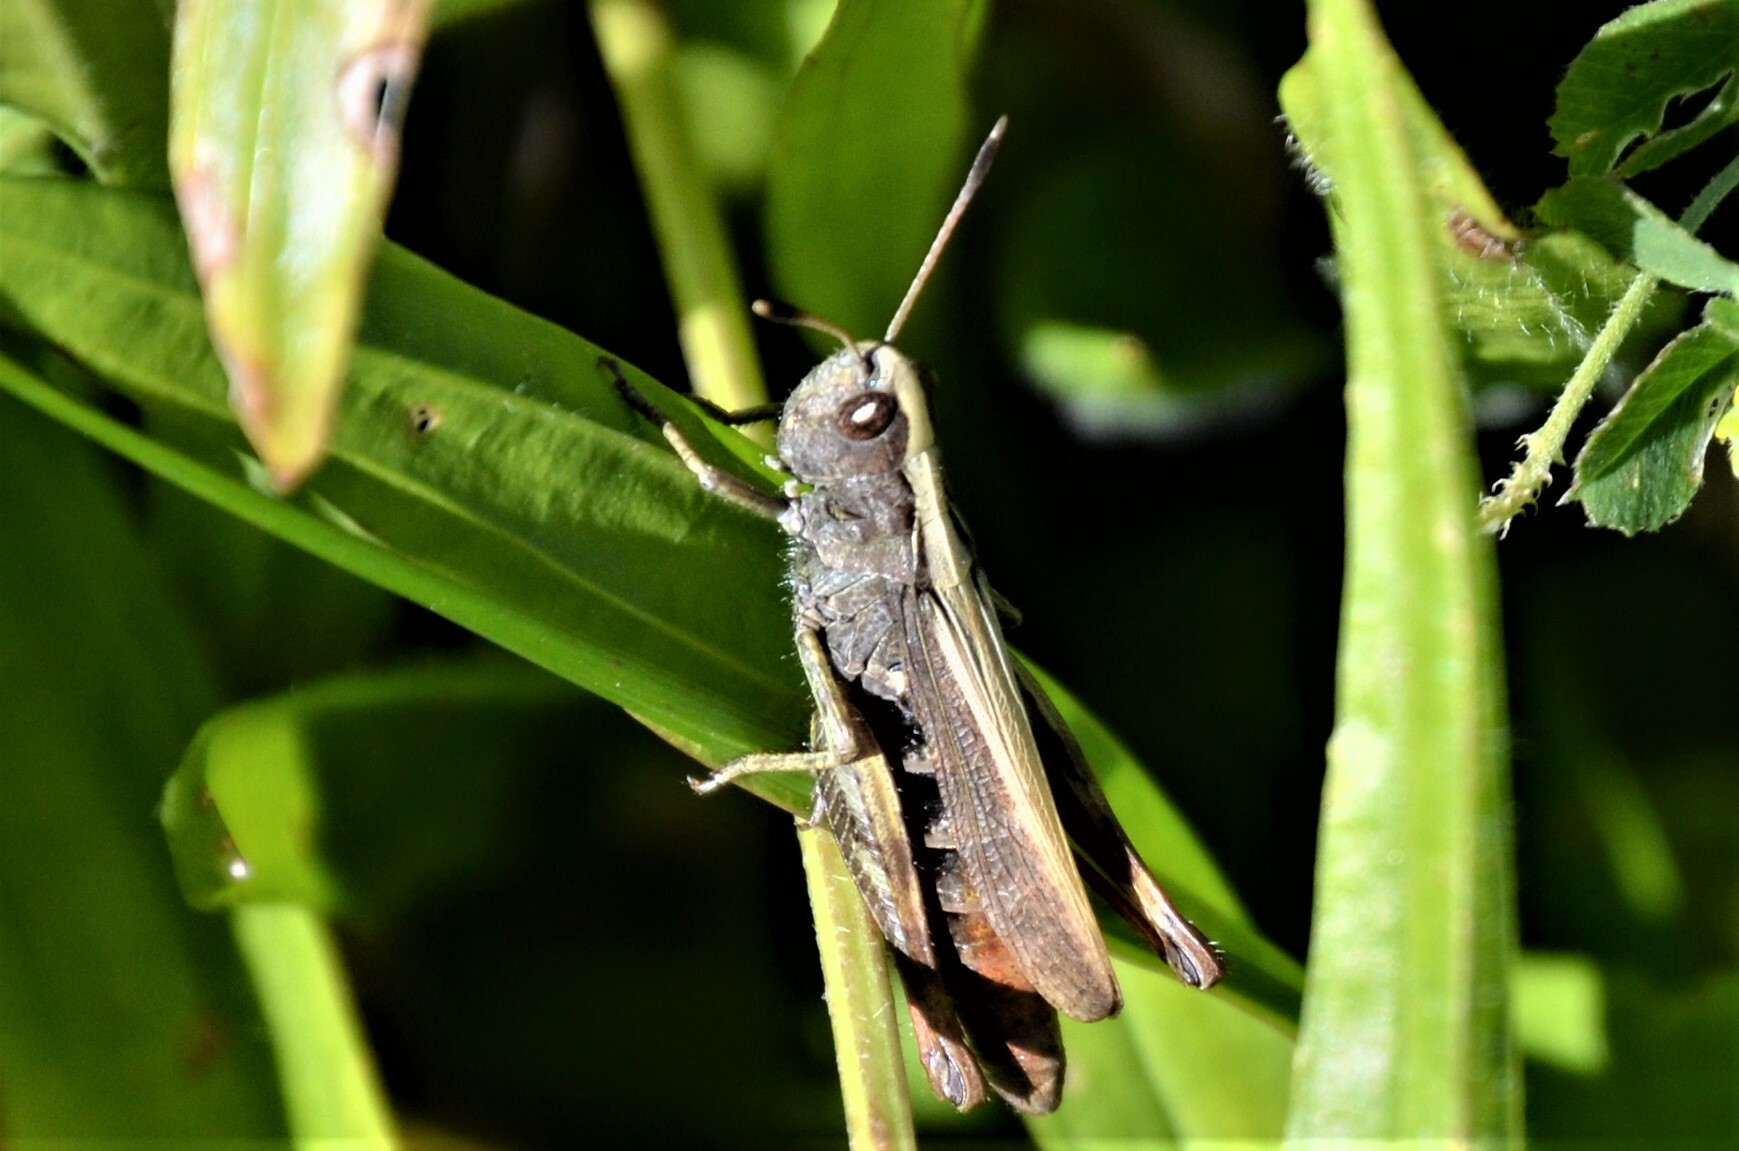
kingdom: Animalia
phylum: Arthropoda
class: Insecta
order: Orthoptera
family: Acrididae
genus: Gomphocerippus
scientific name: Gomphocerippus rufus
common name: Rufous grasshopper
